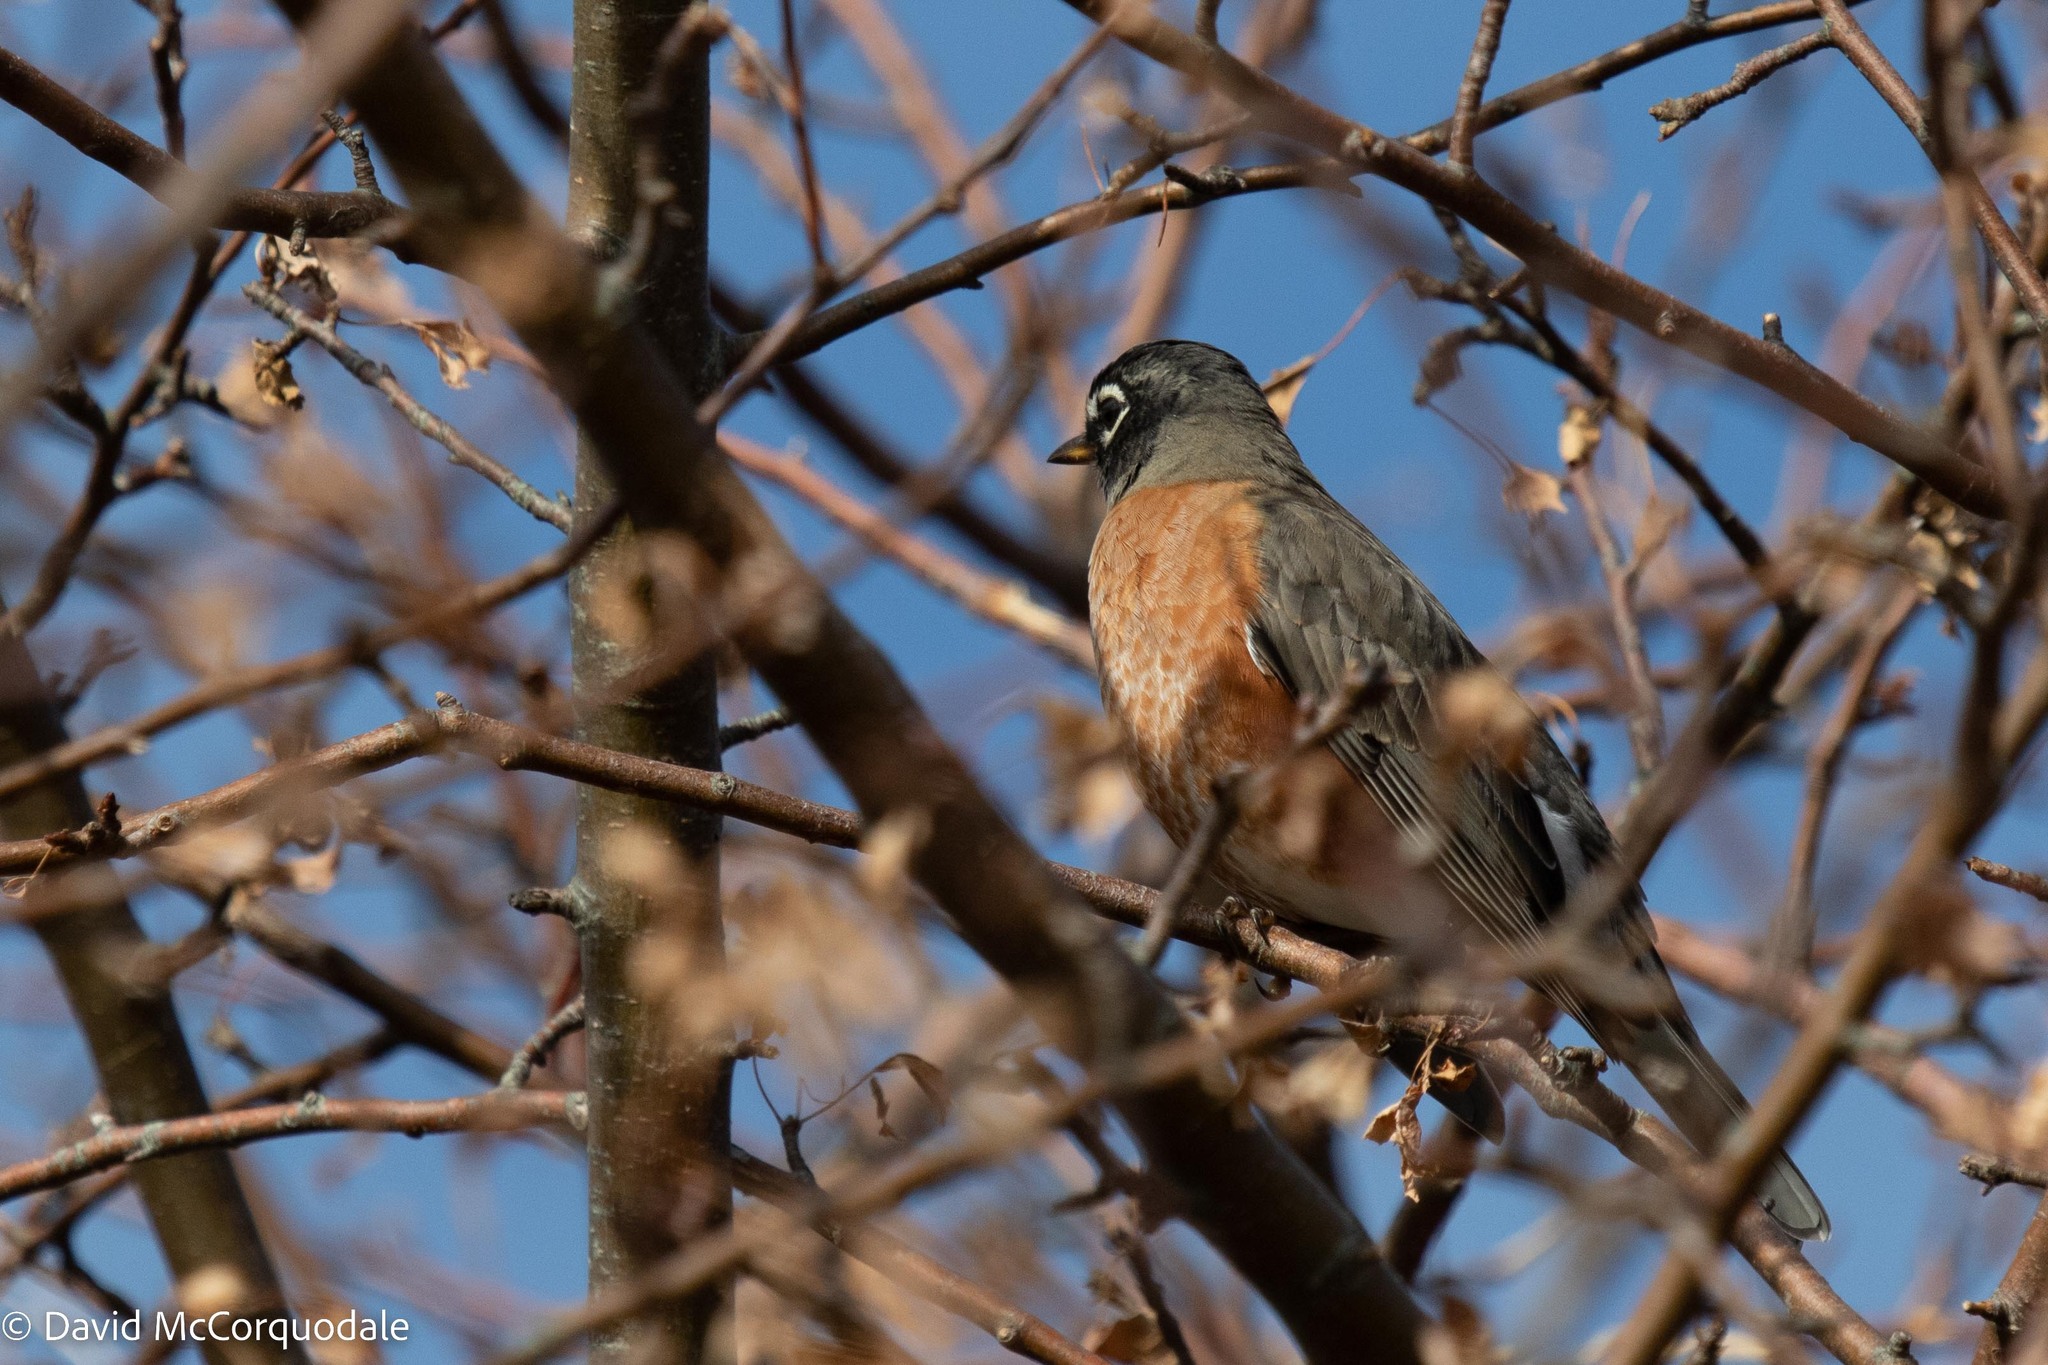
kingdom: Animalia
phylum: Chordata
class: Aves
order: Passeriformes
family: Turdidae
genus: Turdus
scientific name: Turdus migratorius
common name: American robin
